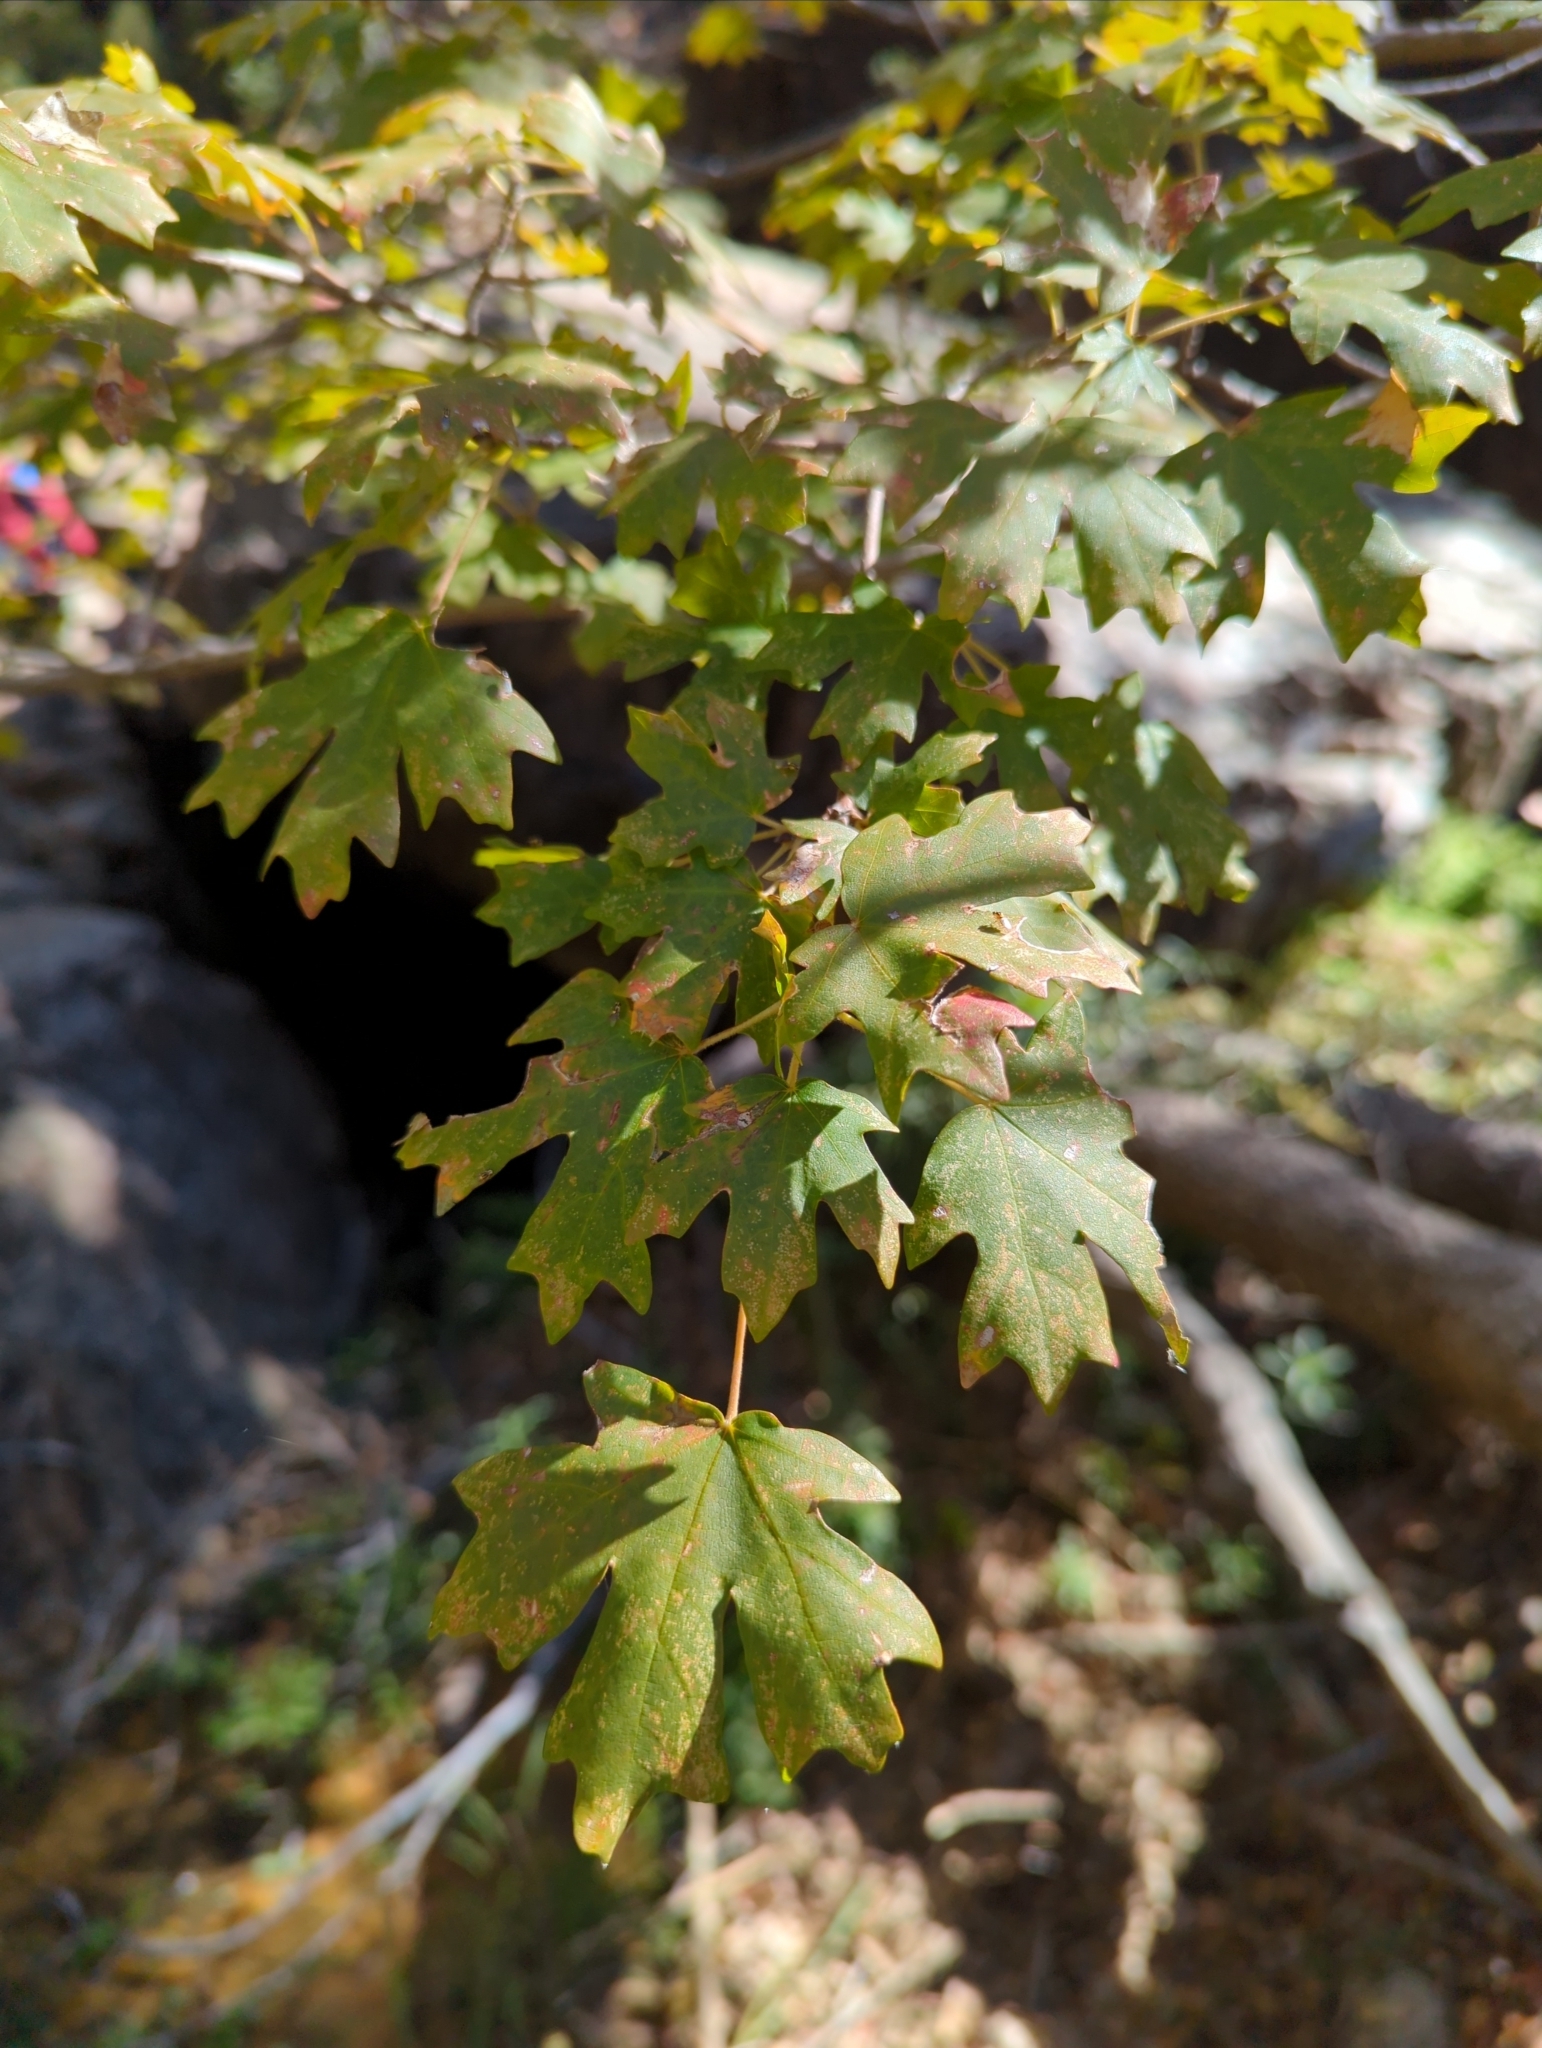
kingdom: Plantae
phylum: Tracheophyta
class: Magnoliopsida
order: Sapindales
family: Sapindaceae
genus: Acer
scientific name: Acer grandidentatum
